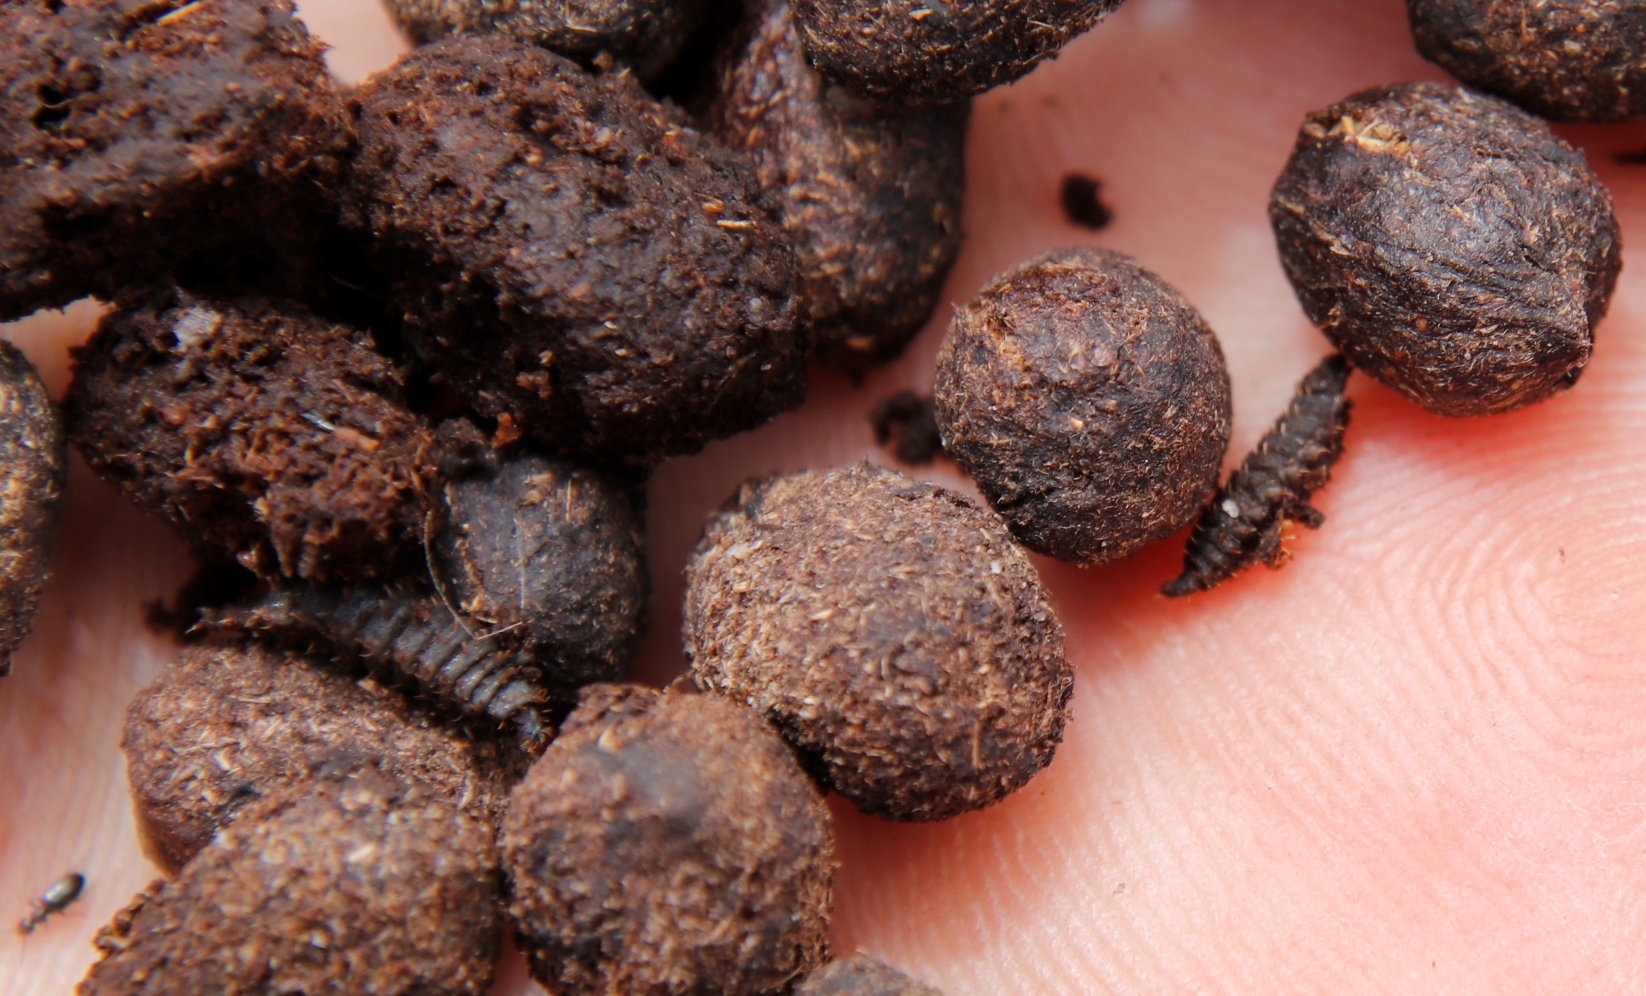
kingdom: Animalia
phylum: Chordata
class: Mammalia
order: Artiodactyla
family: Bovidae
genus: Oreotragus
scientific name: Oreotragus oreotragus
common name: Klipspringer
